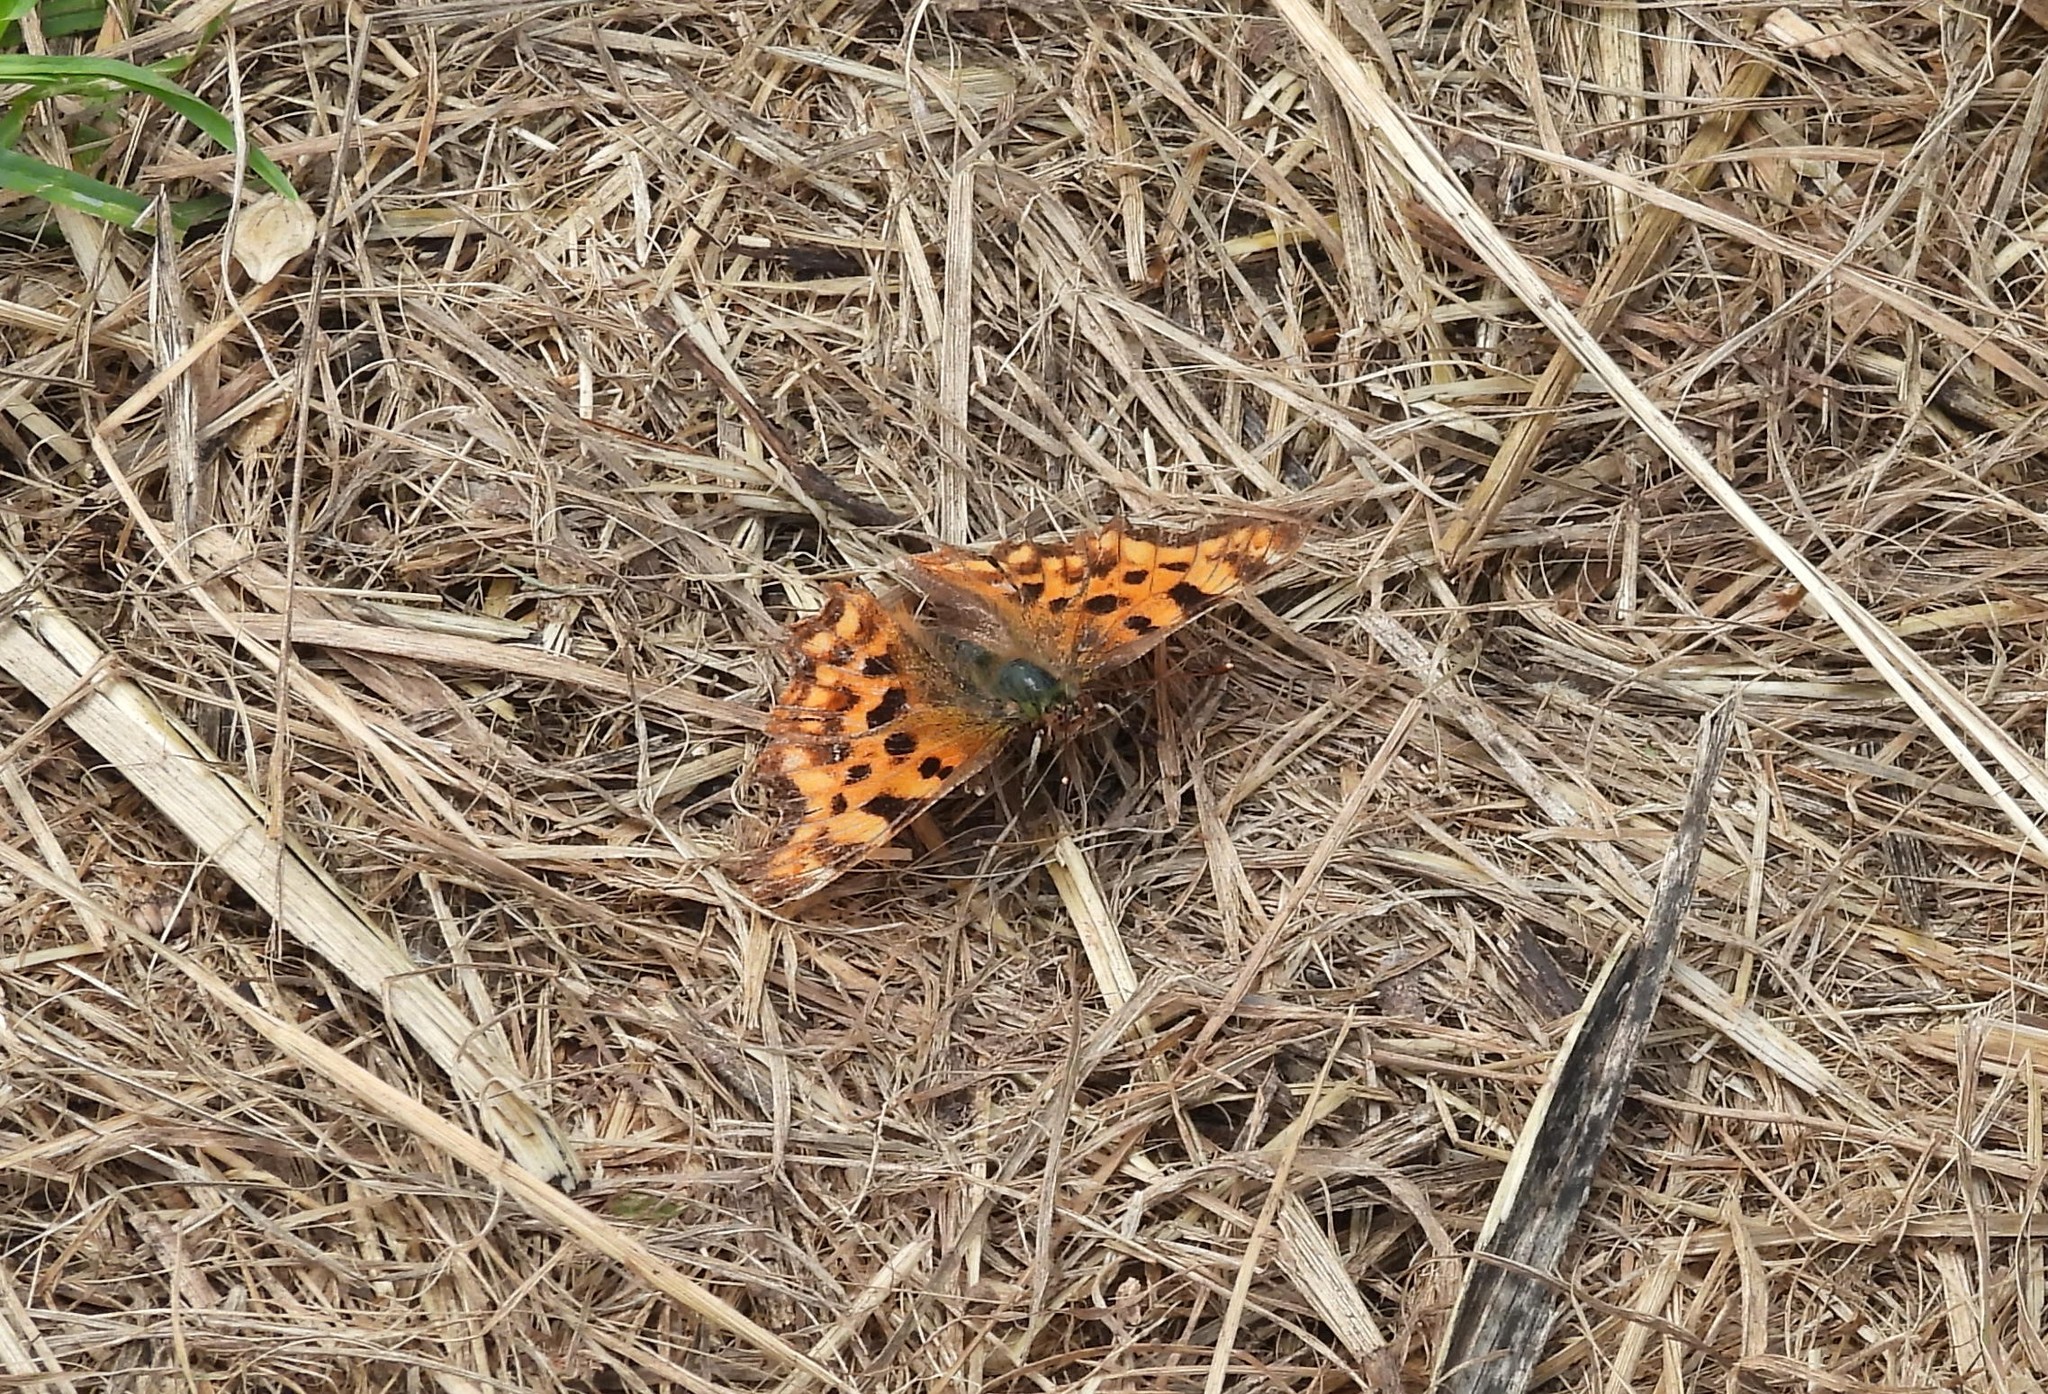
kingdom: Animalia
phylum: Arthropoda
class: Insecta
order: Lepidoptera
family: Nymphalidae
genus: Polygonia
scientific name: Polygonia c-album
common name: Comma
